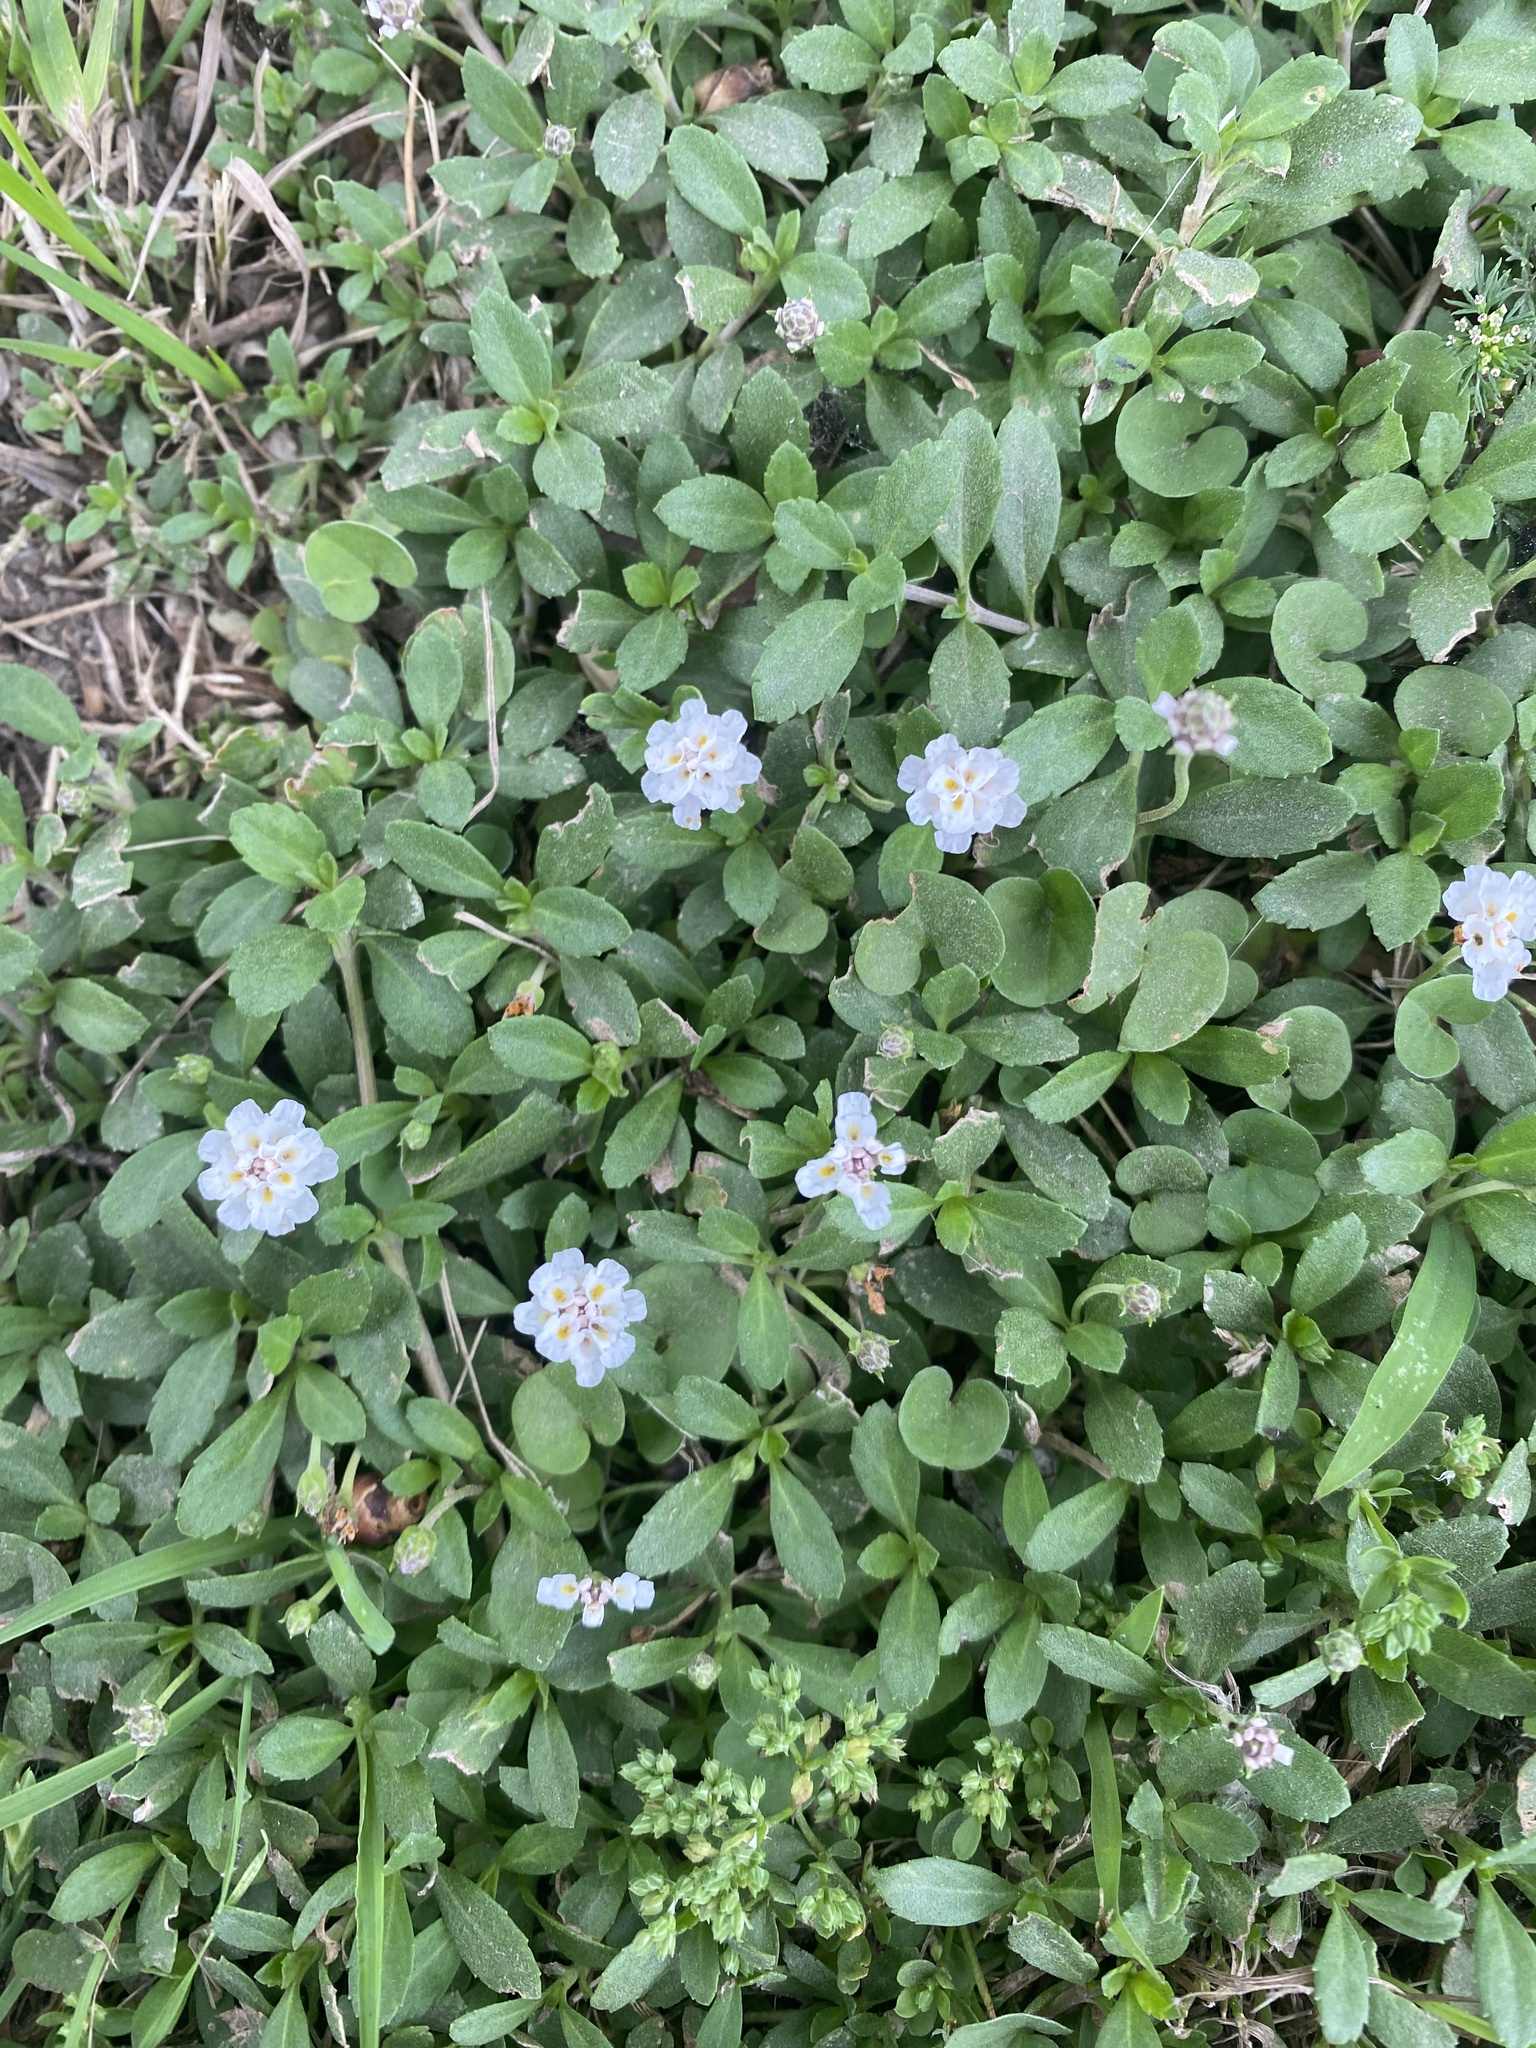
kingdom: Plantae
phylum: Tracheophyta
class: Magnoliopsida
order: Lamiales
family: Verbenaceae
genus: Phyla
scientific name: Phyla nodiflora
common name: Frogfruit
